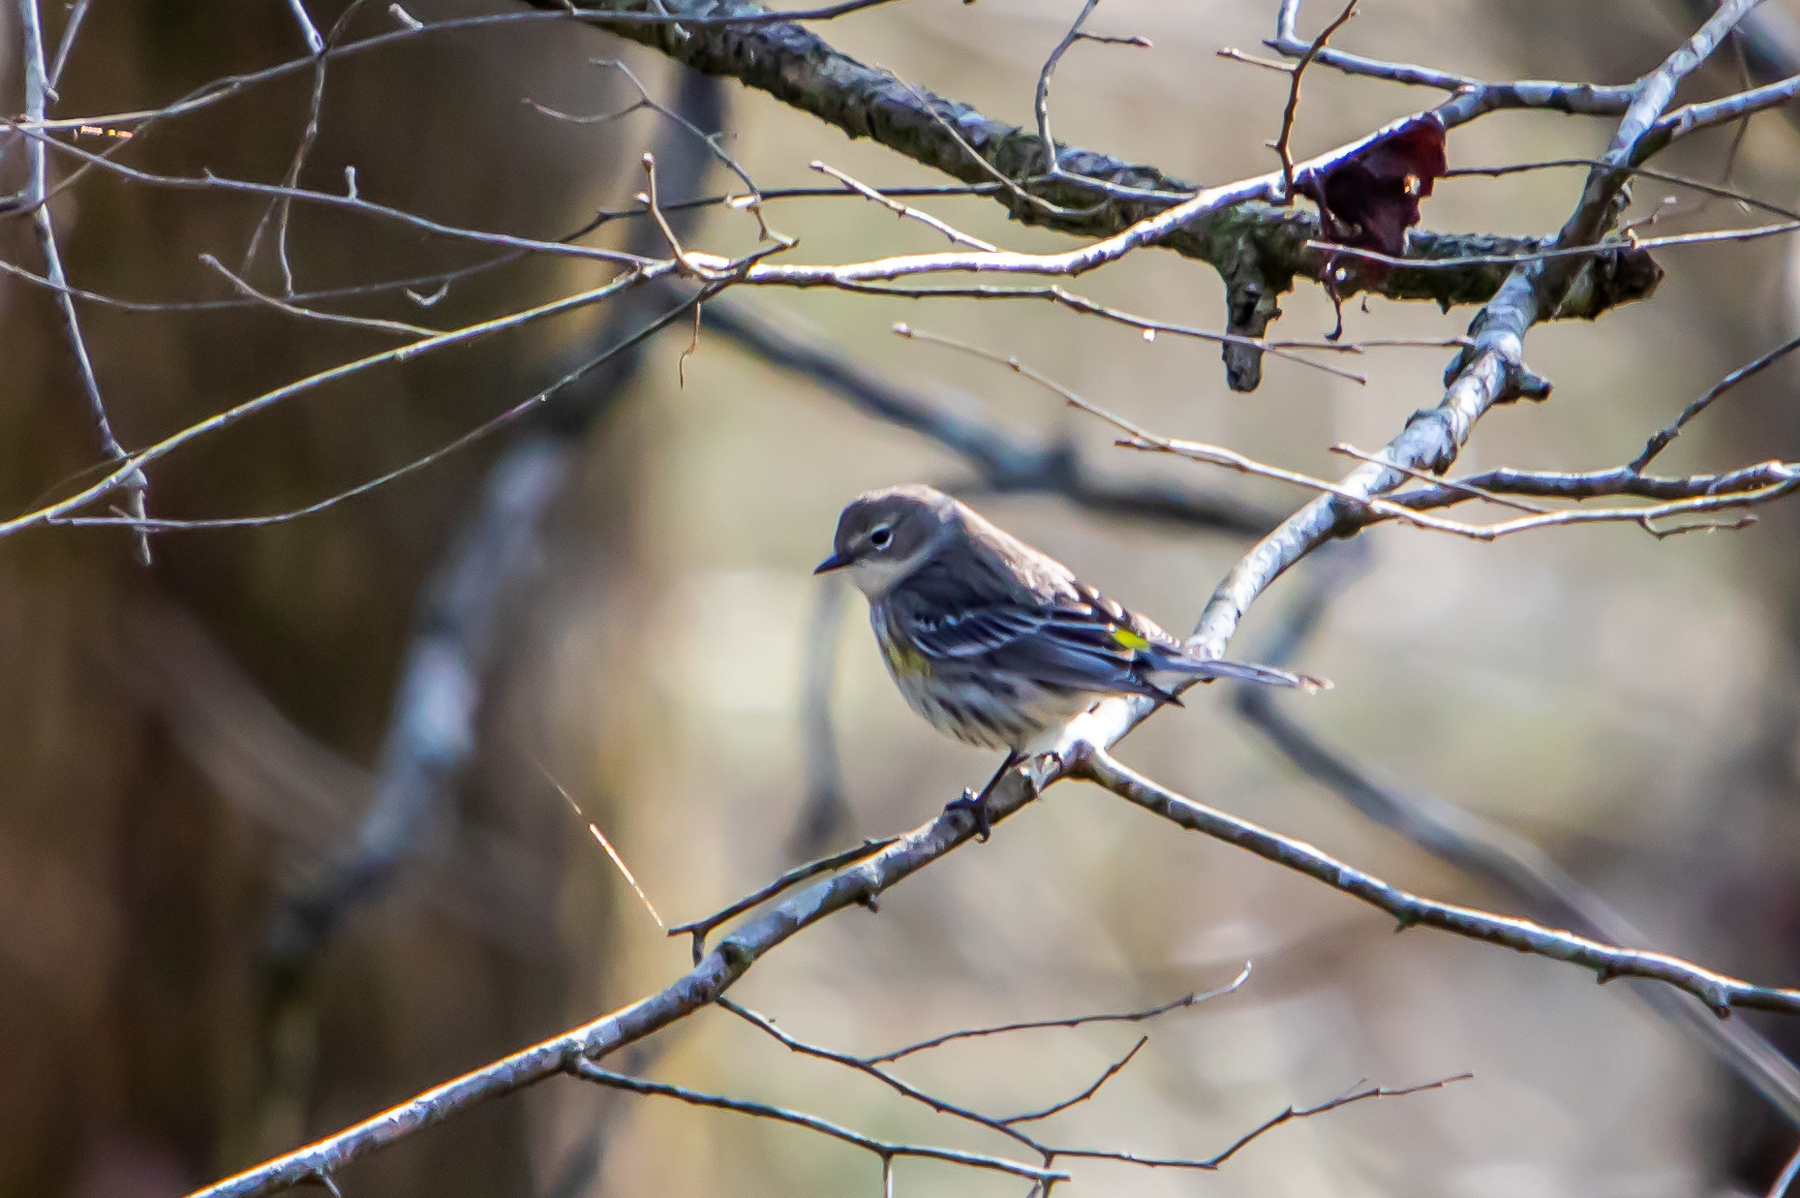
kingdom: Animalia
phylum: Chordata
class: Aves
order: Passeriformes
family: Parulidae
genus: Setophaga
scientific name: Setophaga coronata
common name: Myrtle warbler
